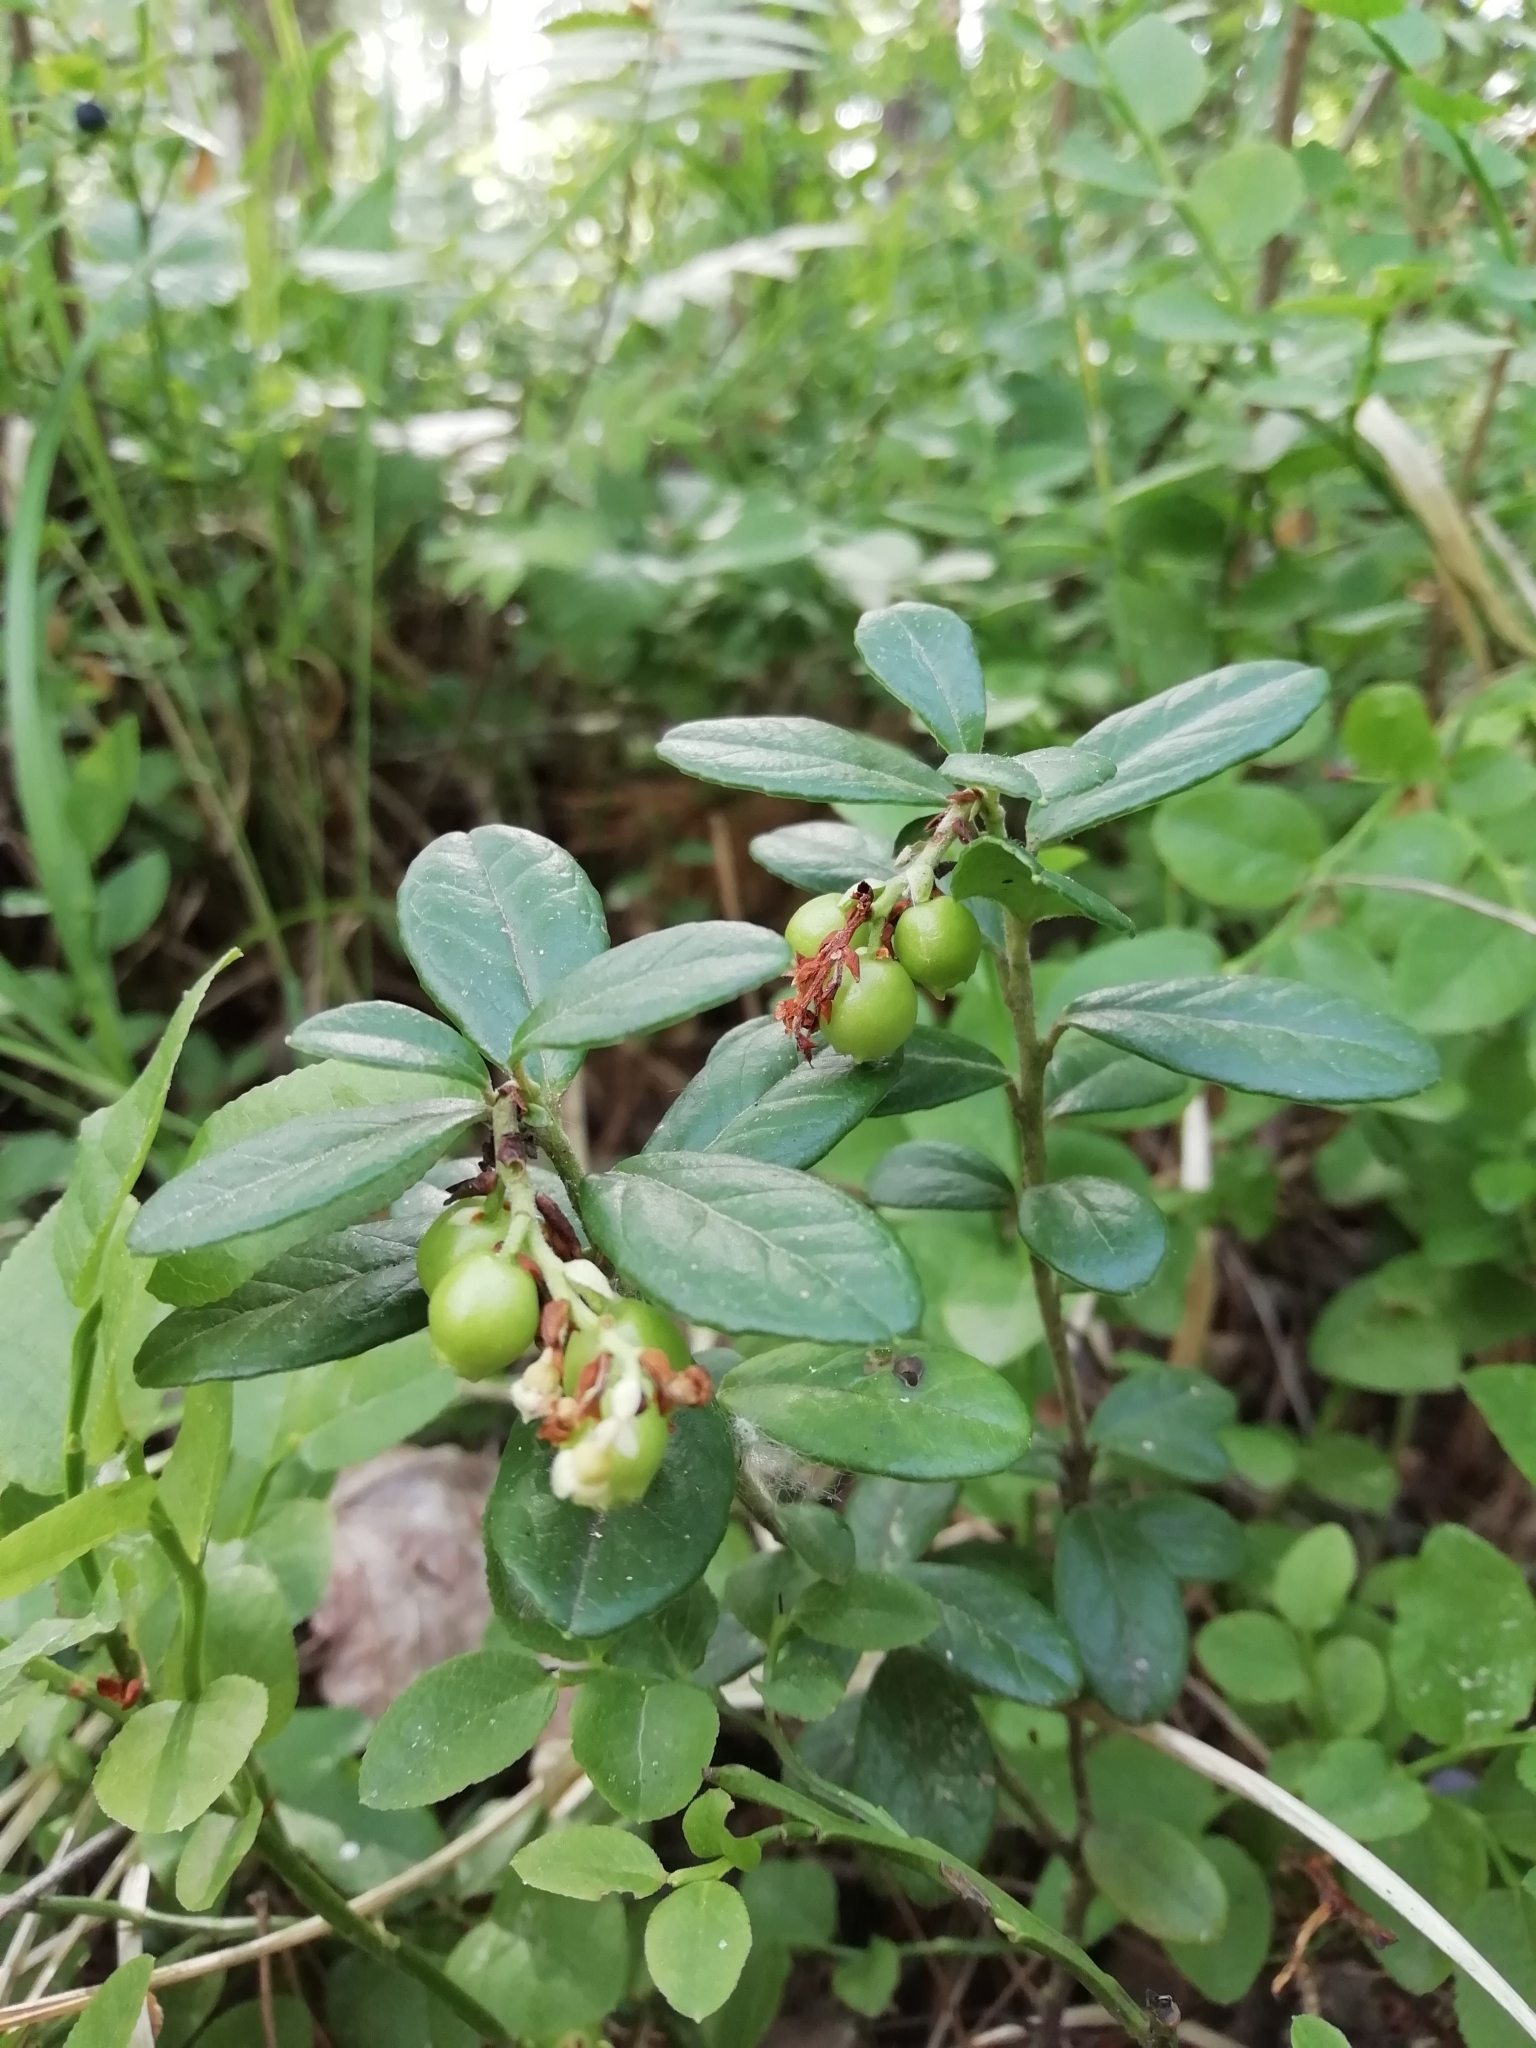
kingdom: Plantae
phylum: Tracheophyta
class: Magnoliopsida
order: Ericales
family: Ericaceae
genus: Vaccinium
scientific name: Vaccinium vitis-idaea
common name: Cowberry
